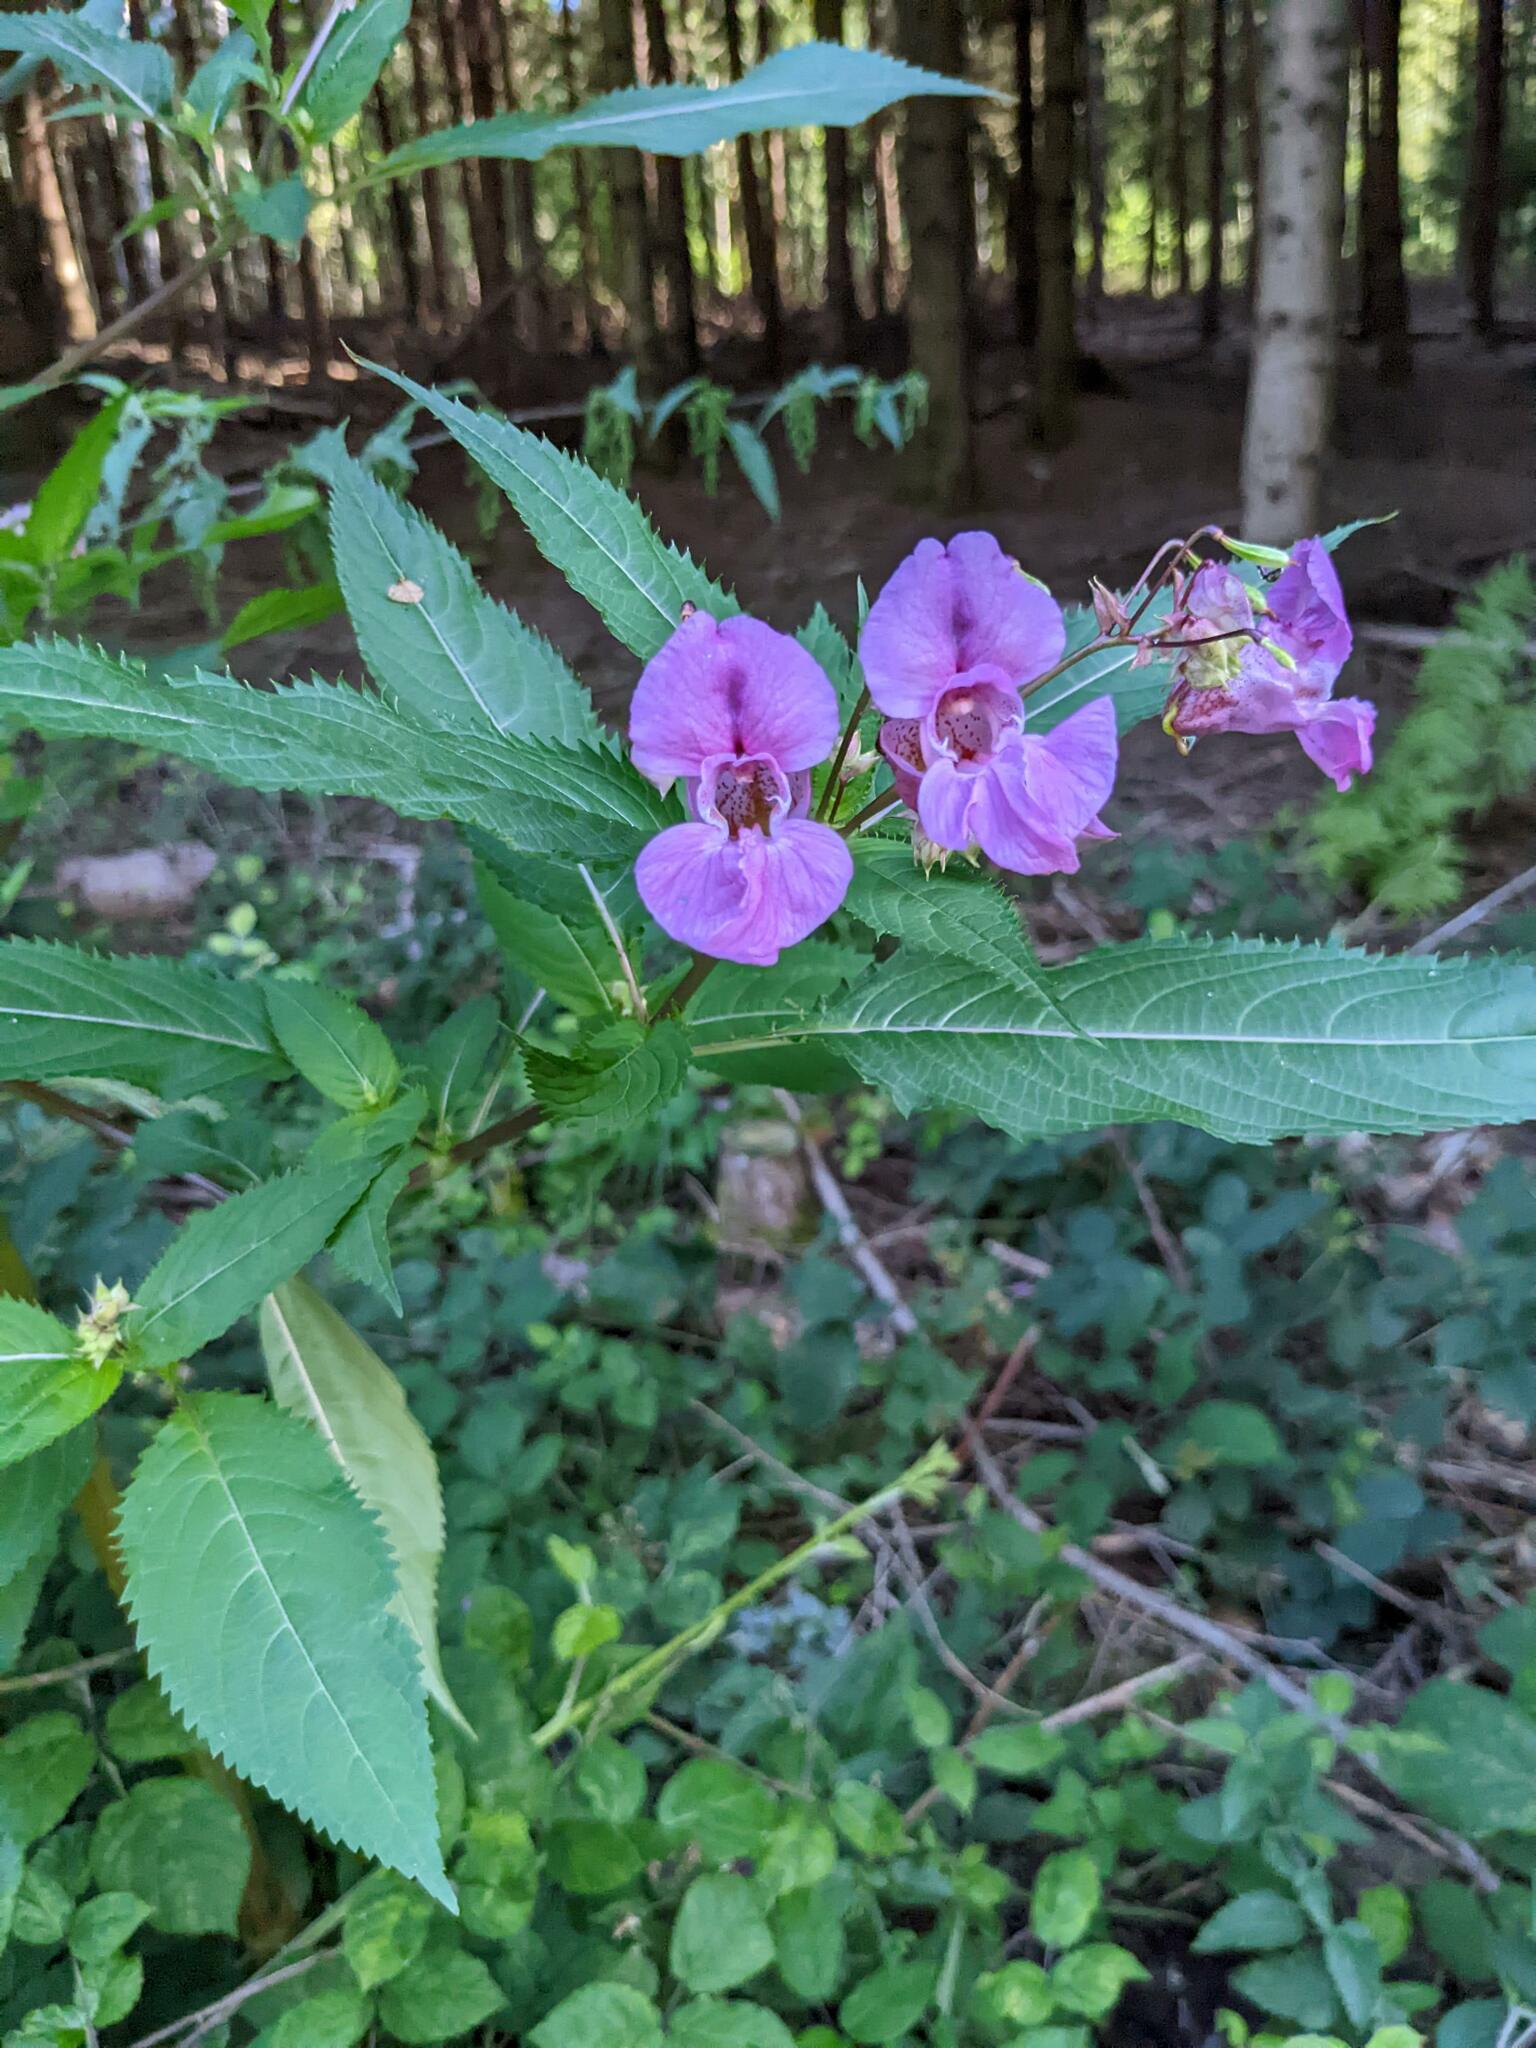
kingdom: Plantae
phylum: Tracheophyta
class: Magnoliopsida
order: Ericales
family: Balsaminaceae
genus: Impatiens
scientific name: Impatiens glandulifera
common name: Himalayan balsam
